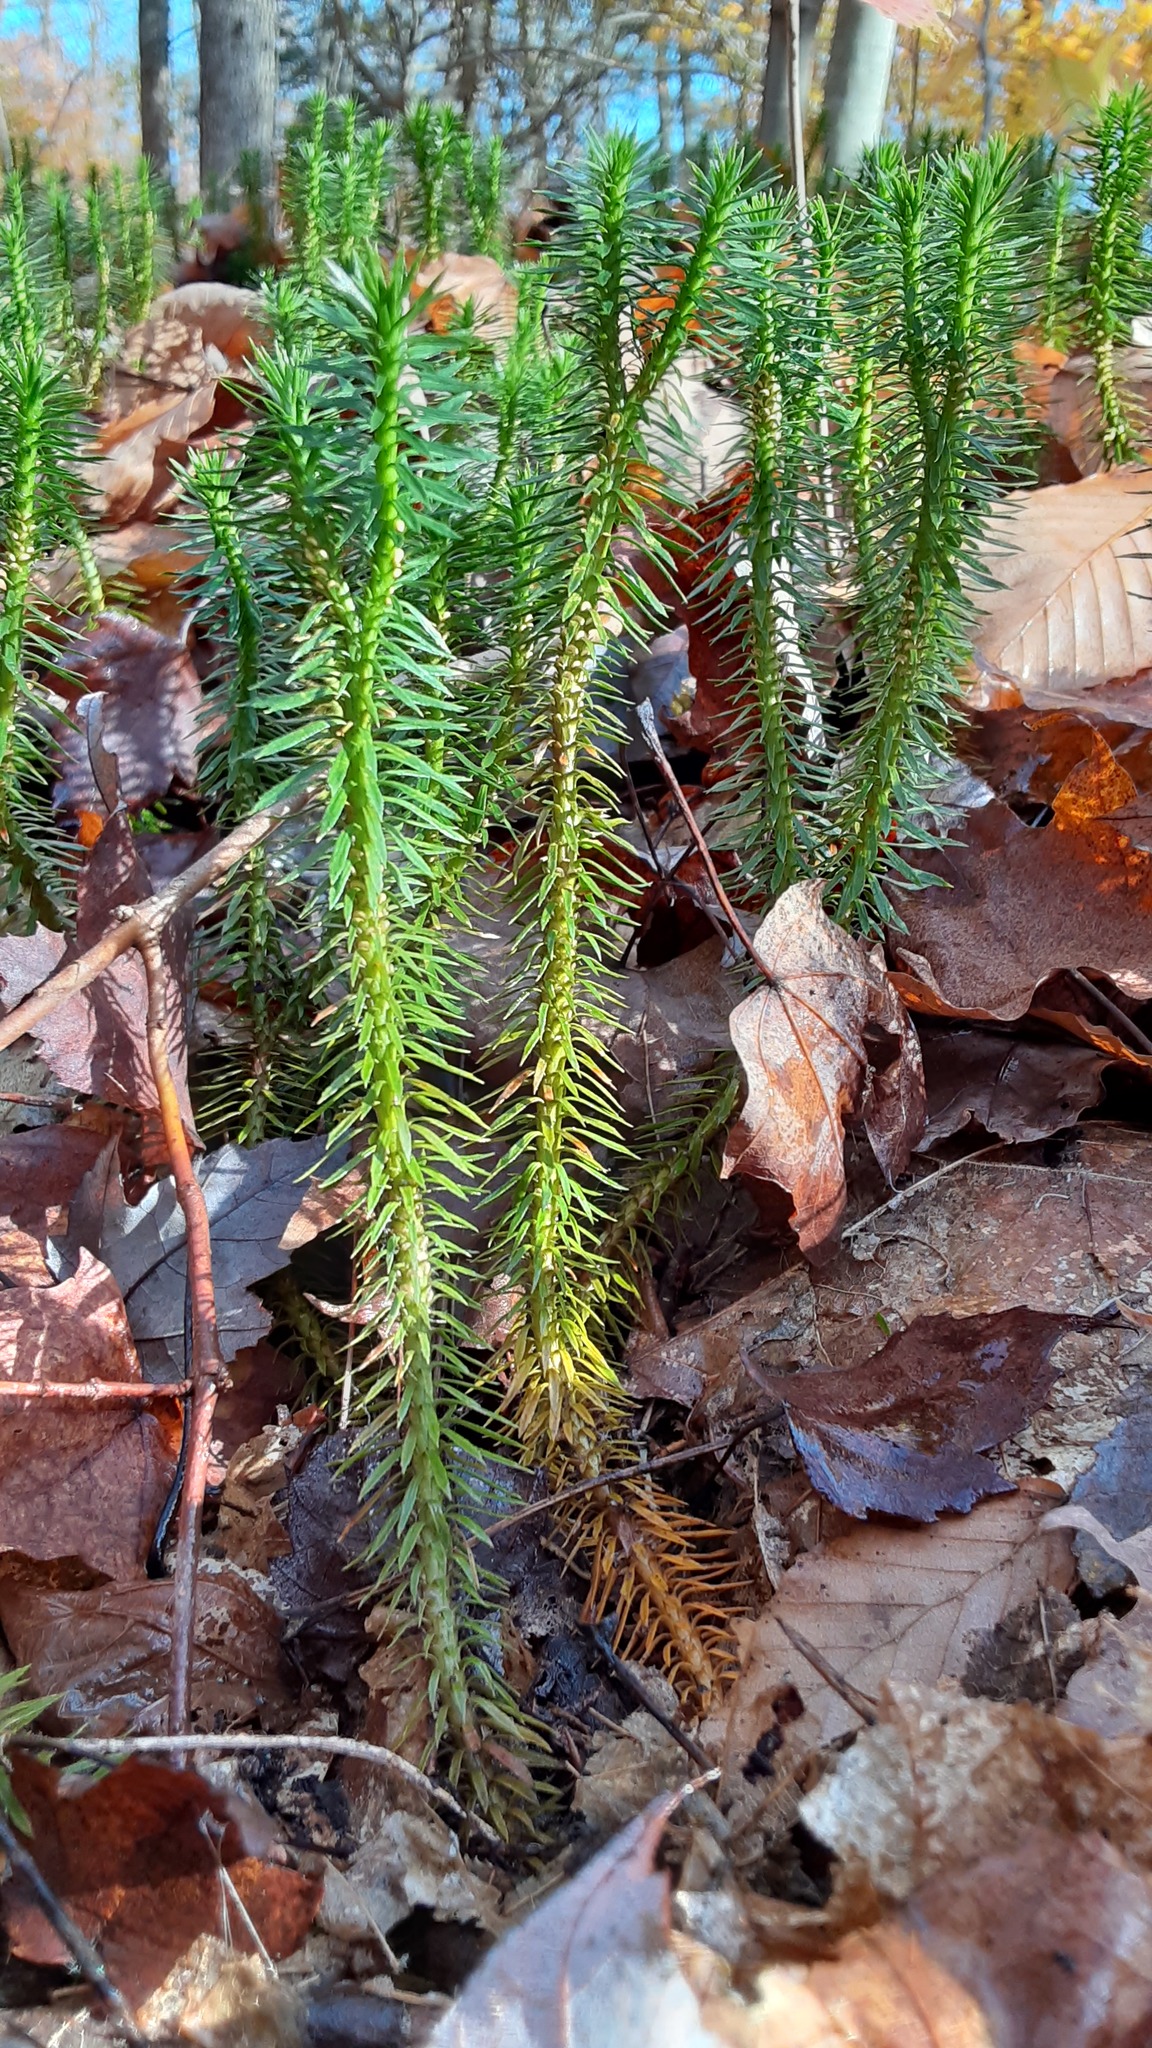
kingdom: Plantae
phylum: Tracheophyta
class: Lycopodiopsida
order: Lycopodiales
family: Lycopodiaceae
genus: Huperzia
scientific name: Huperzia lucidula
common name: Shining clubmoss
